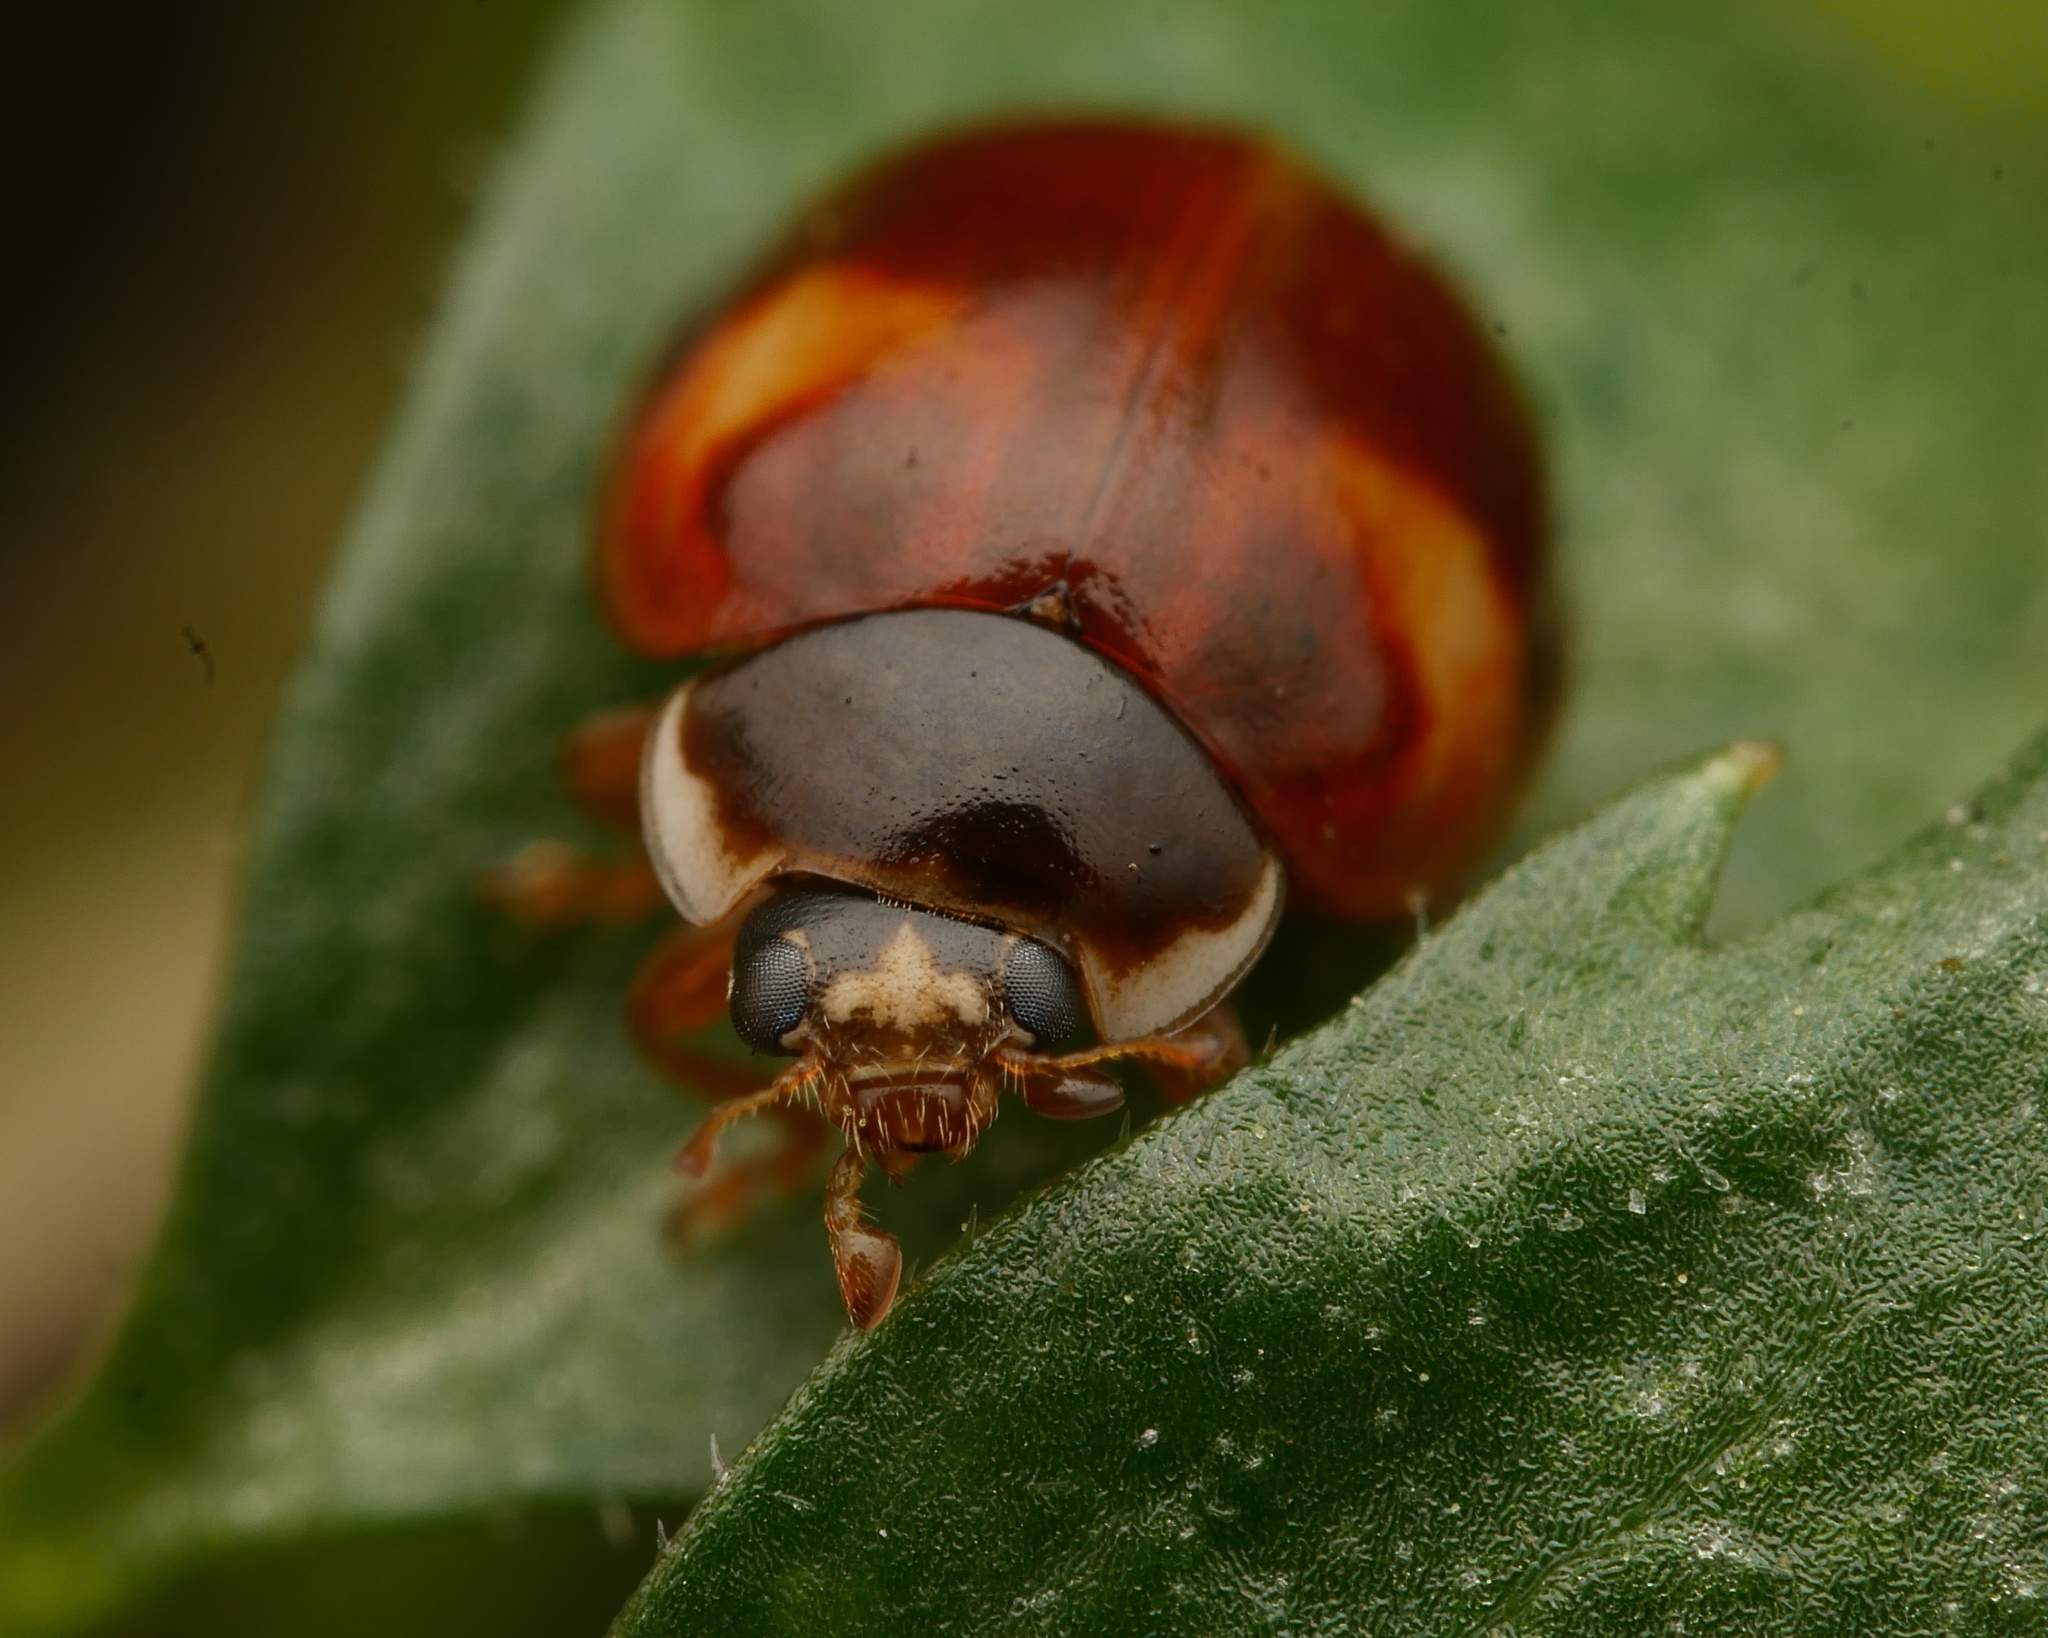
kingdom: Animalia
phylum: Arthropoda
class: Insecta
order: Coleoptera
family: Coccinellidae
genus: Adalia
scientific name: Adalia decempunctata
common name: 10-spot ladybird
